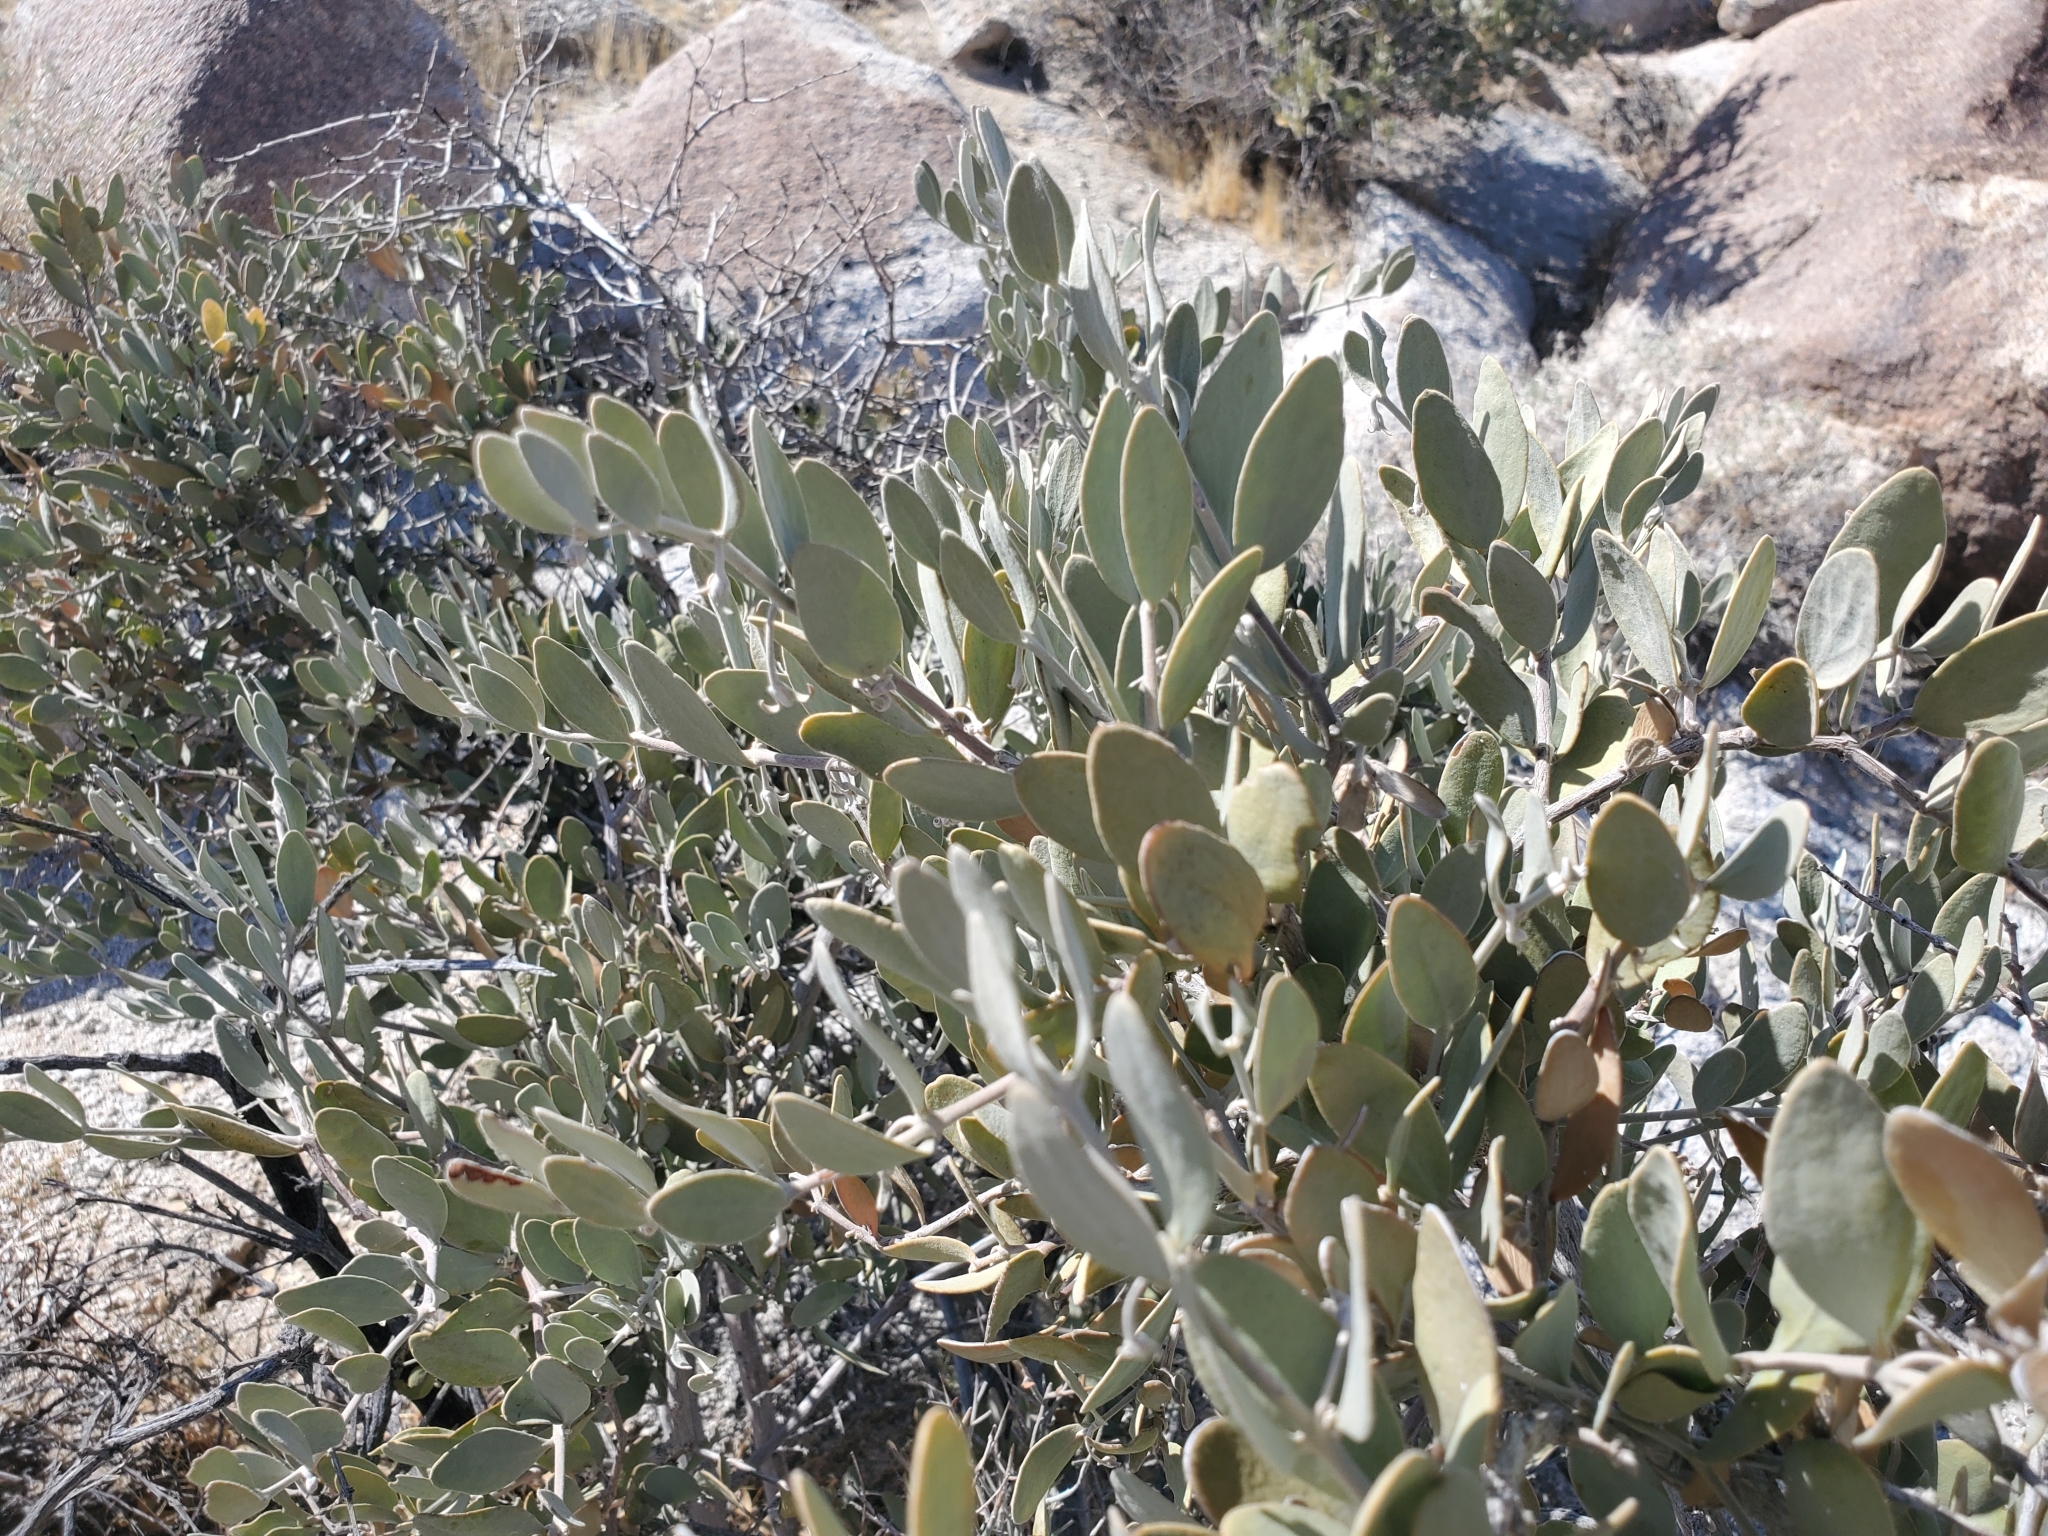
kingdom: Plantae
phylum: Tracheophyta
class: Magnoliopsida
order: Caryophyllales
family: Simmondsiaceae
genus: Simmondsia
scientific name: Simmondsia chinensis
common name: Jojoba
